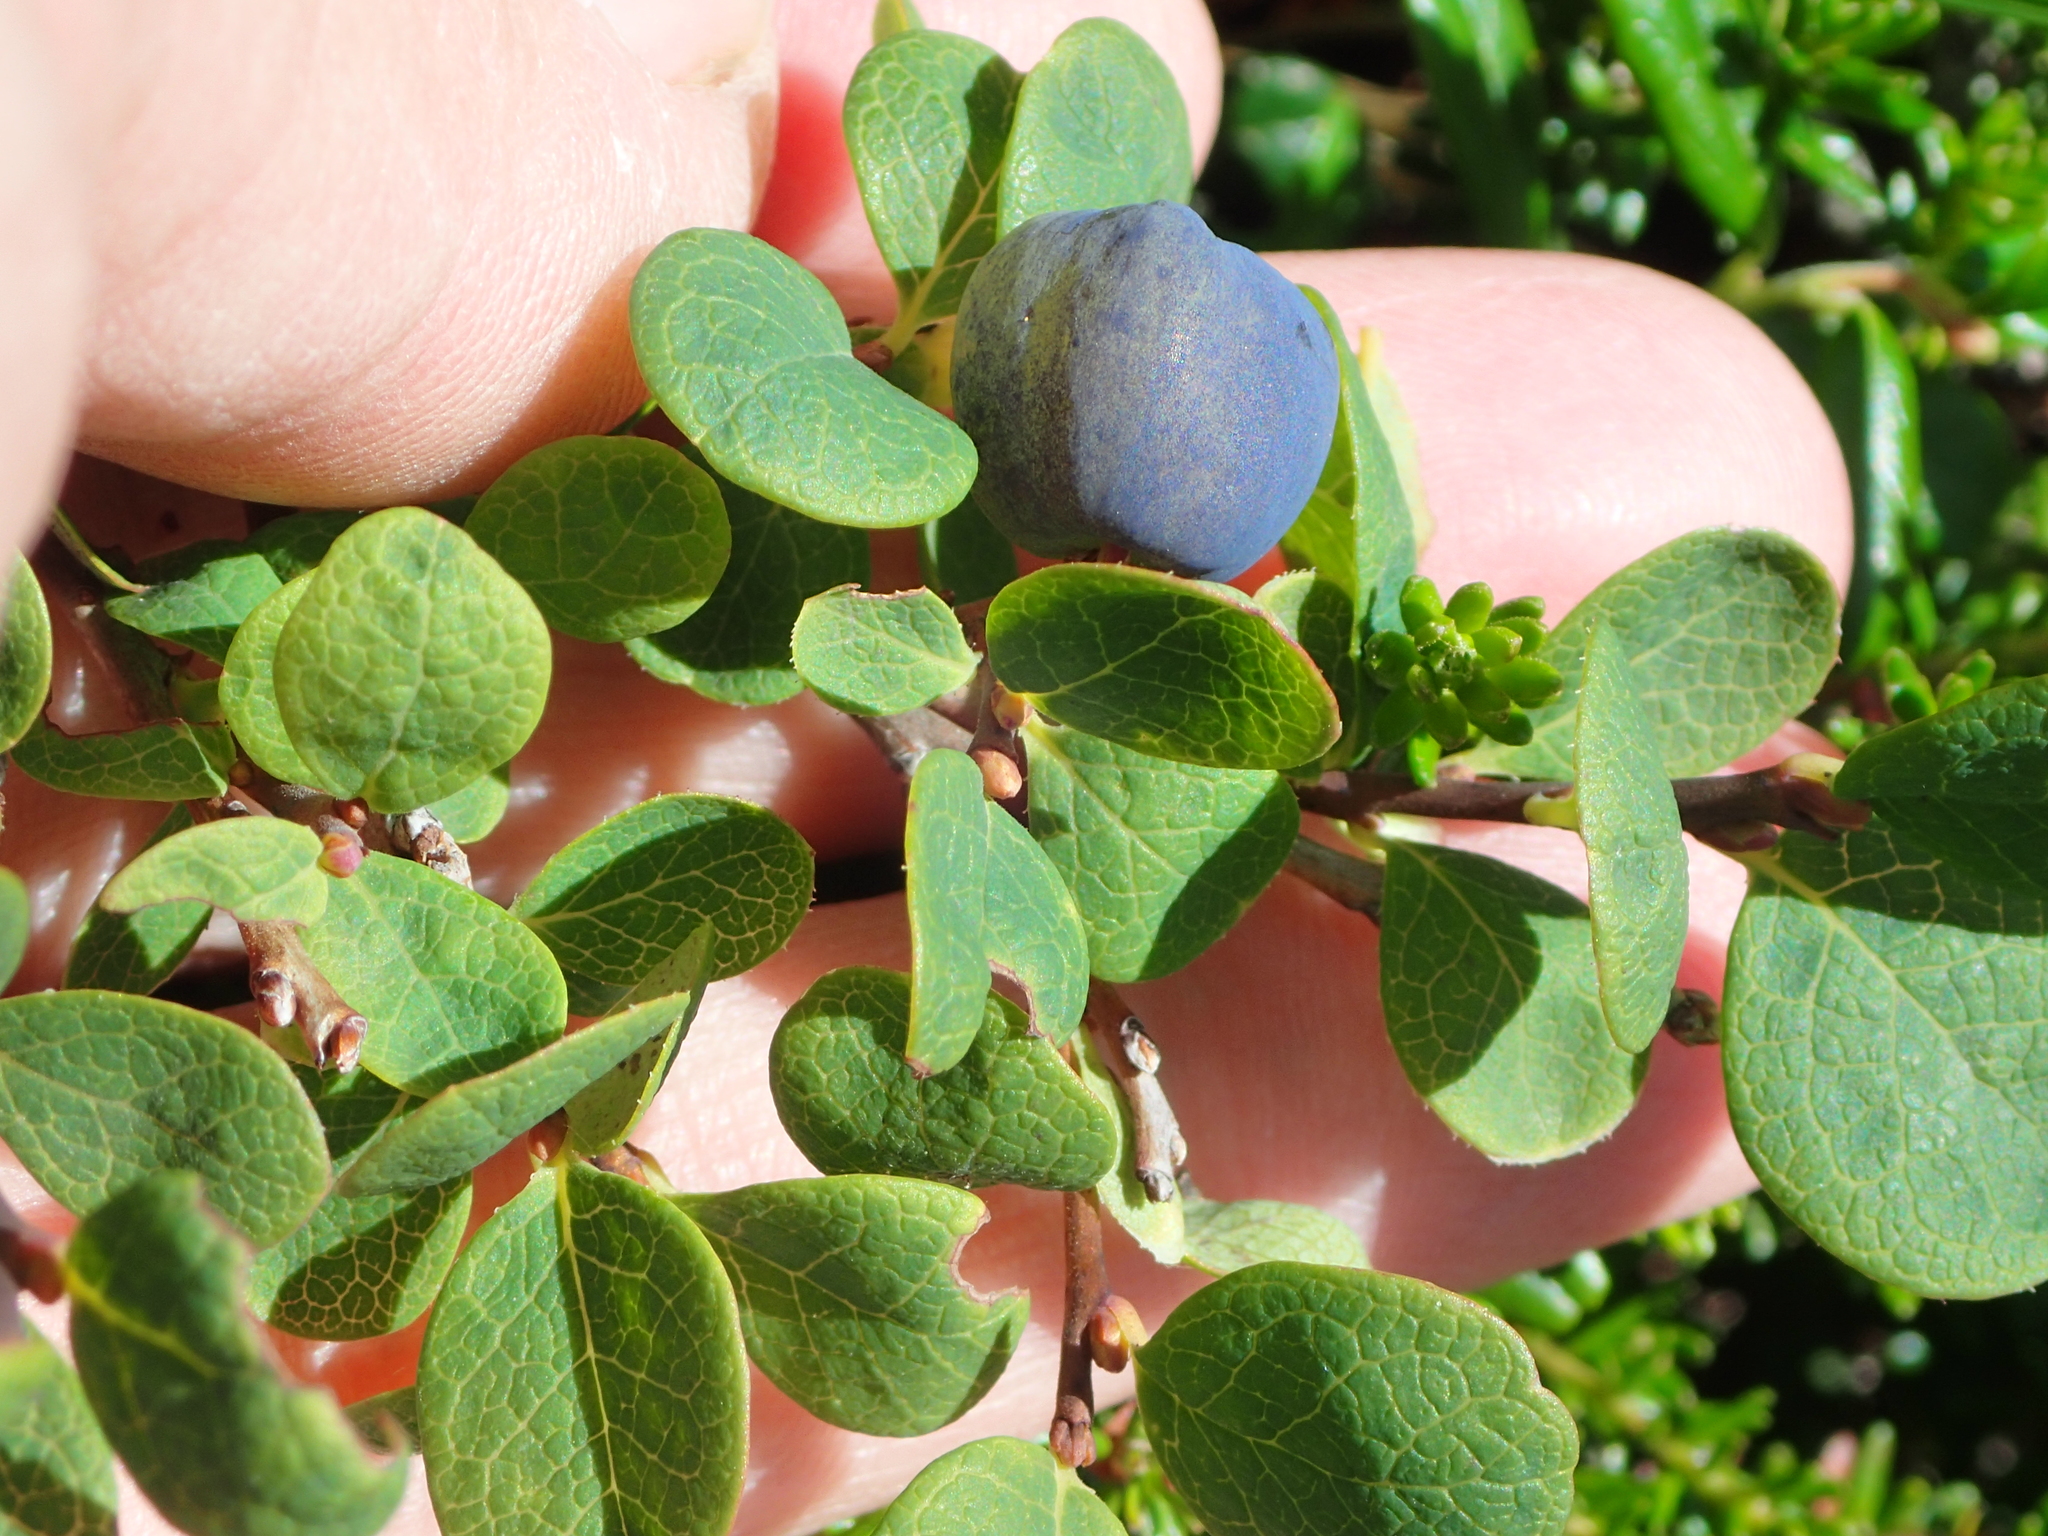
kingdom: Plantae
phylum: Tracheophyta
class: Magnoliopsida
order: Ericales
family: Ericaceae
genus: Vaccinium
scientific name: Vaccinium uliginosum
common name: Bog bilberry
